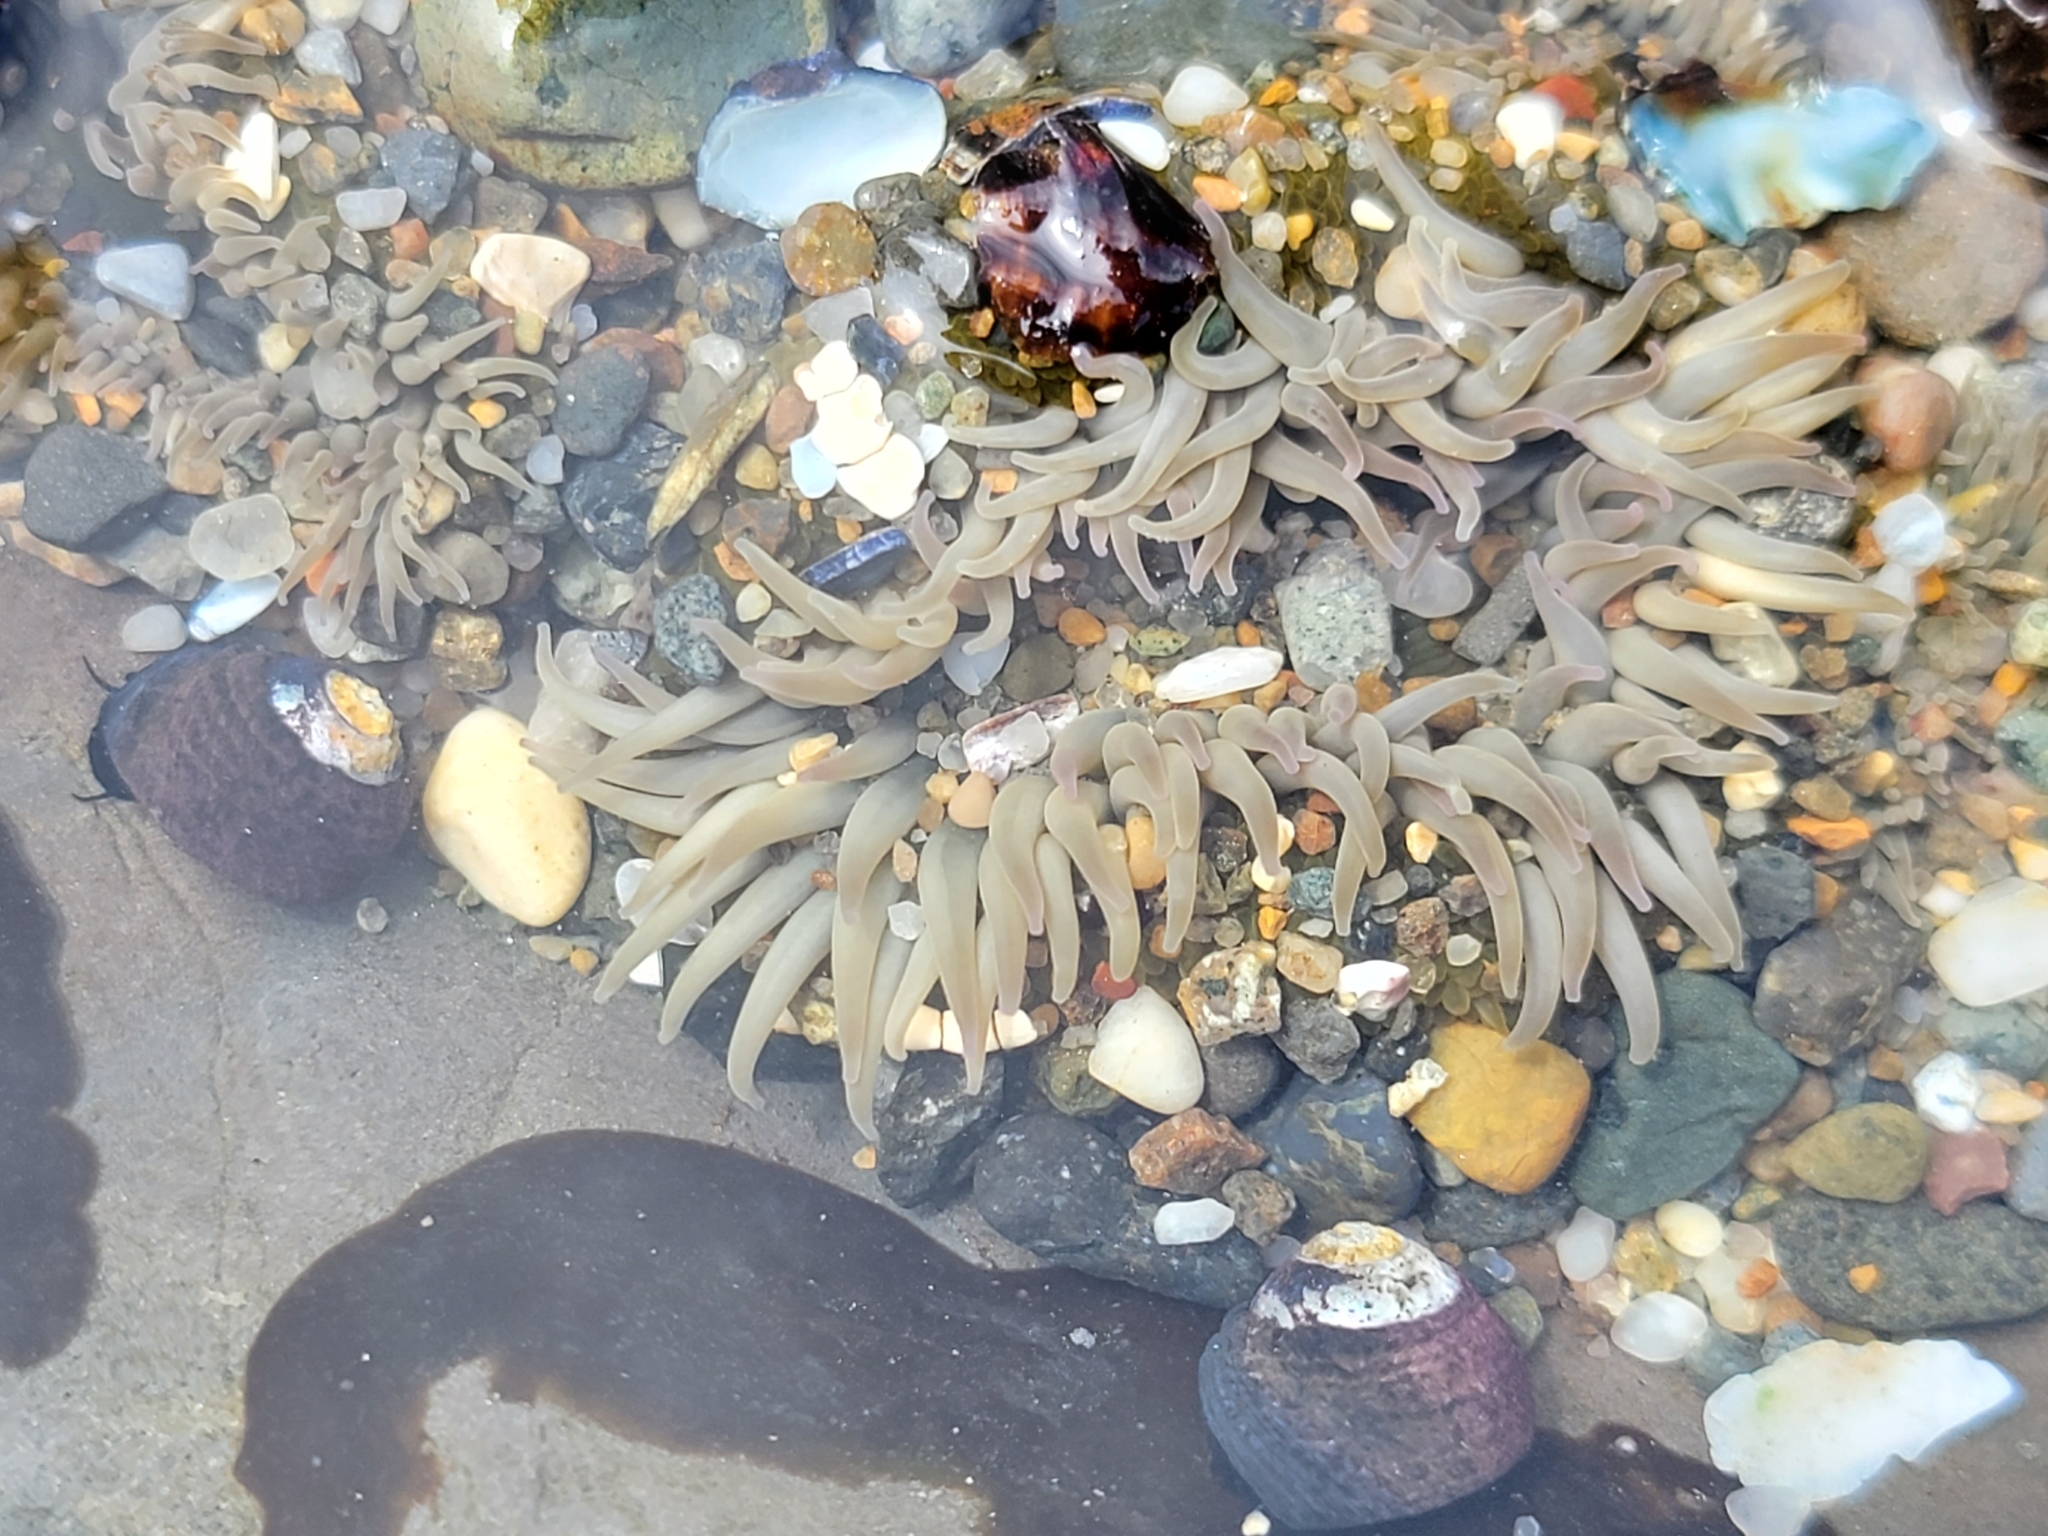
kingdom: Animalia
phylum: Cnidaria
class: Anthozoa
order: Actiniaria
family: Actiniidae
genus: Anthopleura
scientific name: Anthopleura elegantissima
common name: Clonal anemone
